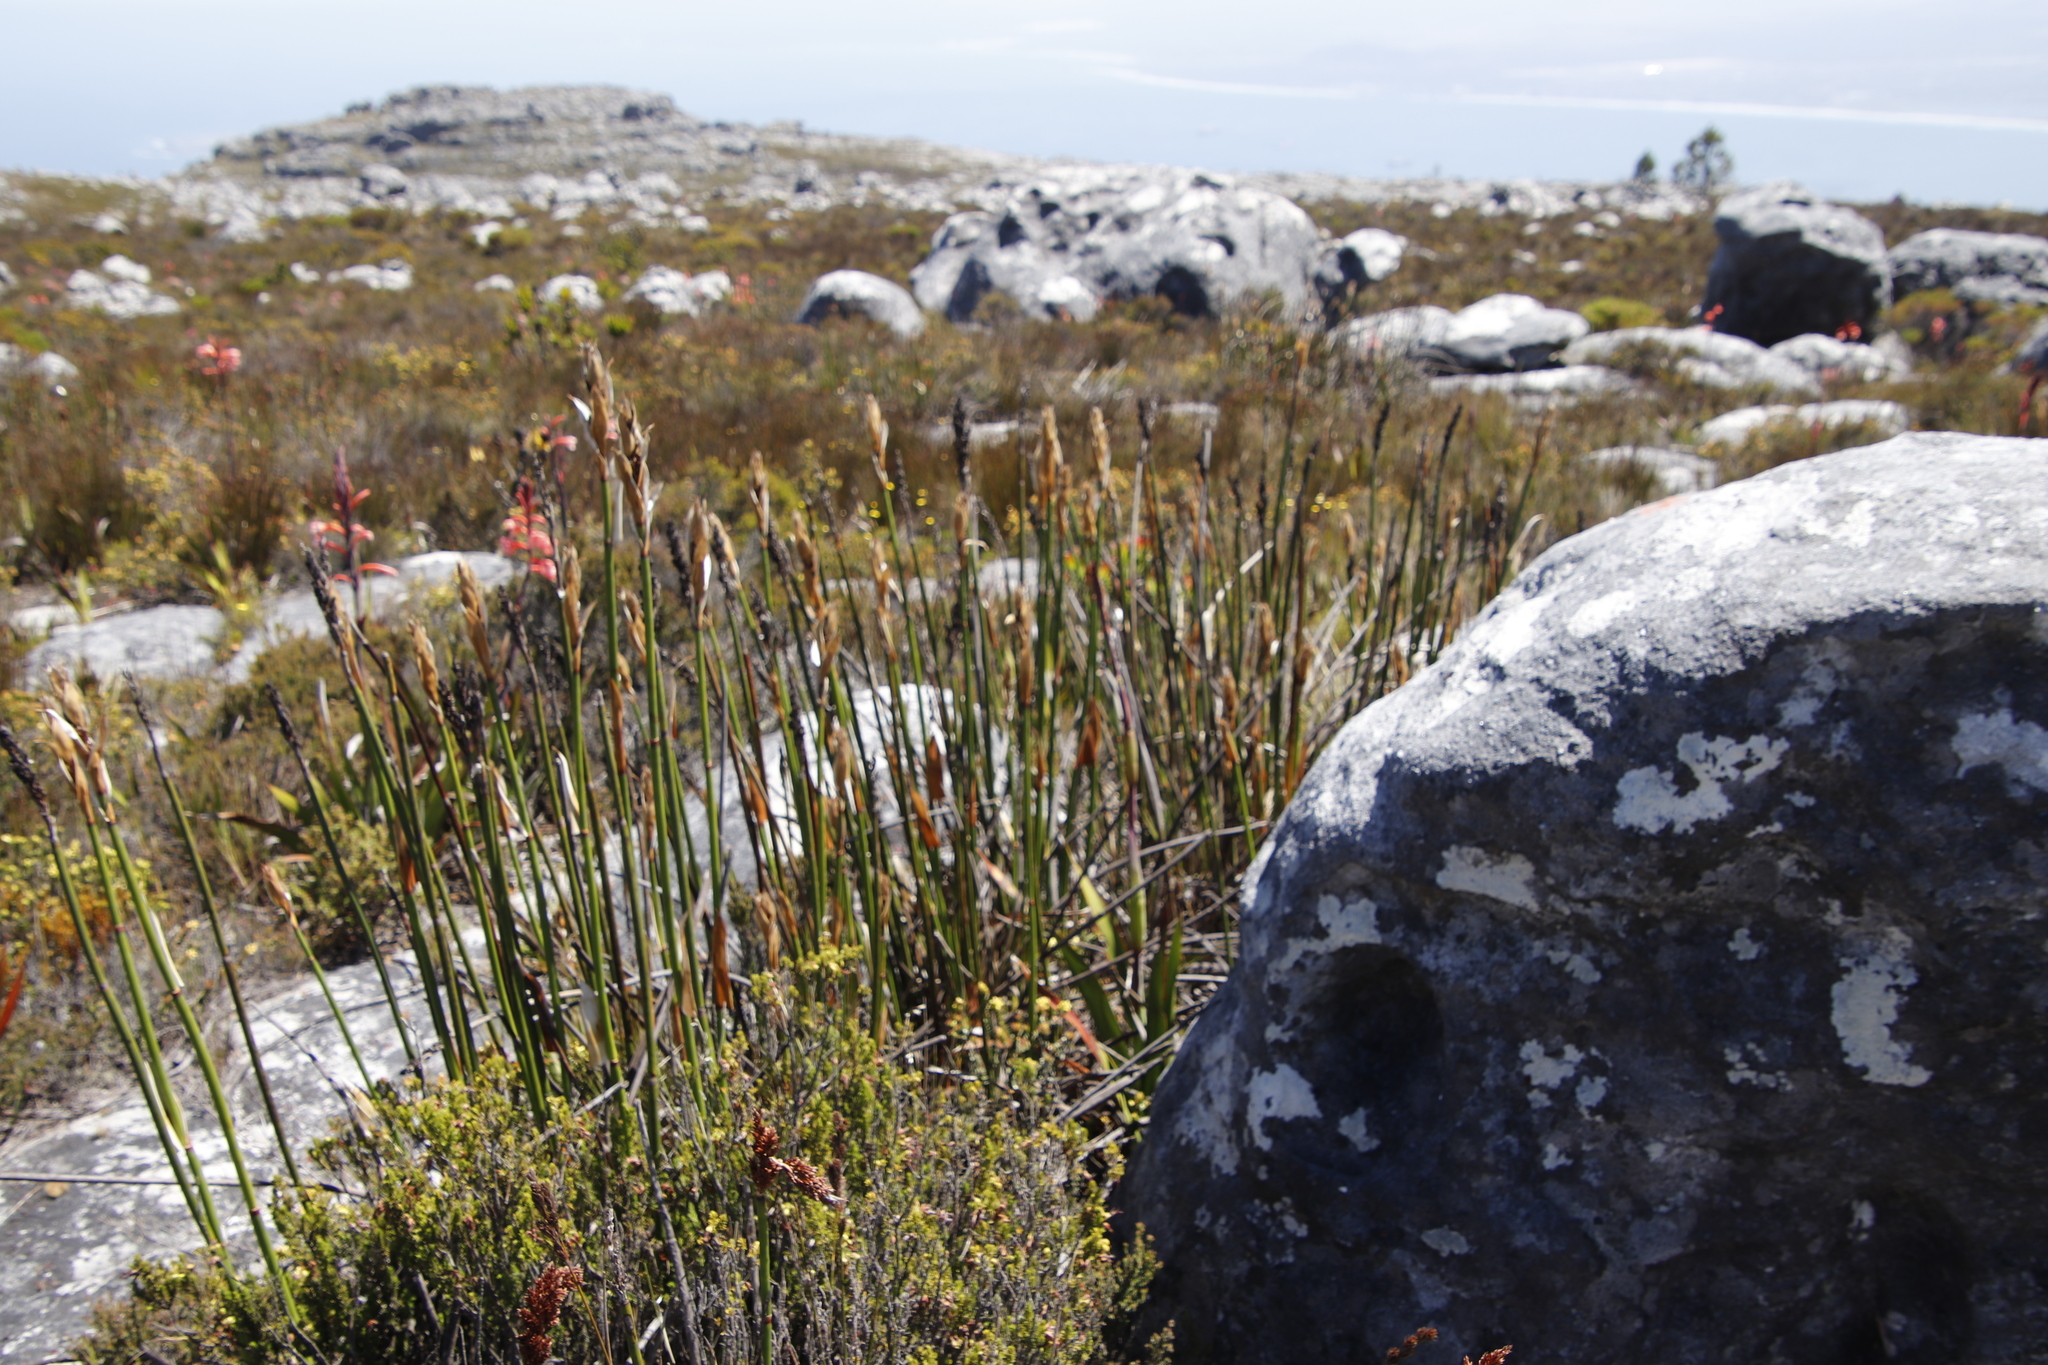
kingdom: Plantae
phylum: Tracheophyta
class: Liliopsida
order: Poales
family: Restionaceae
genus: Elegia
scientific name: Elegia mucronata
